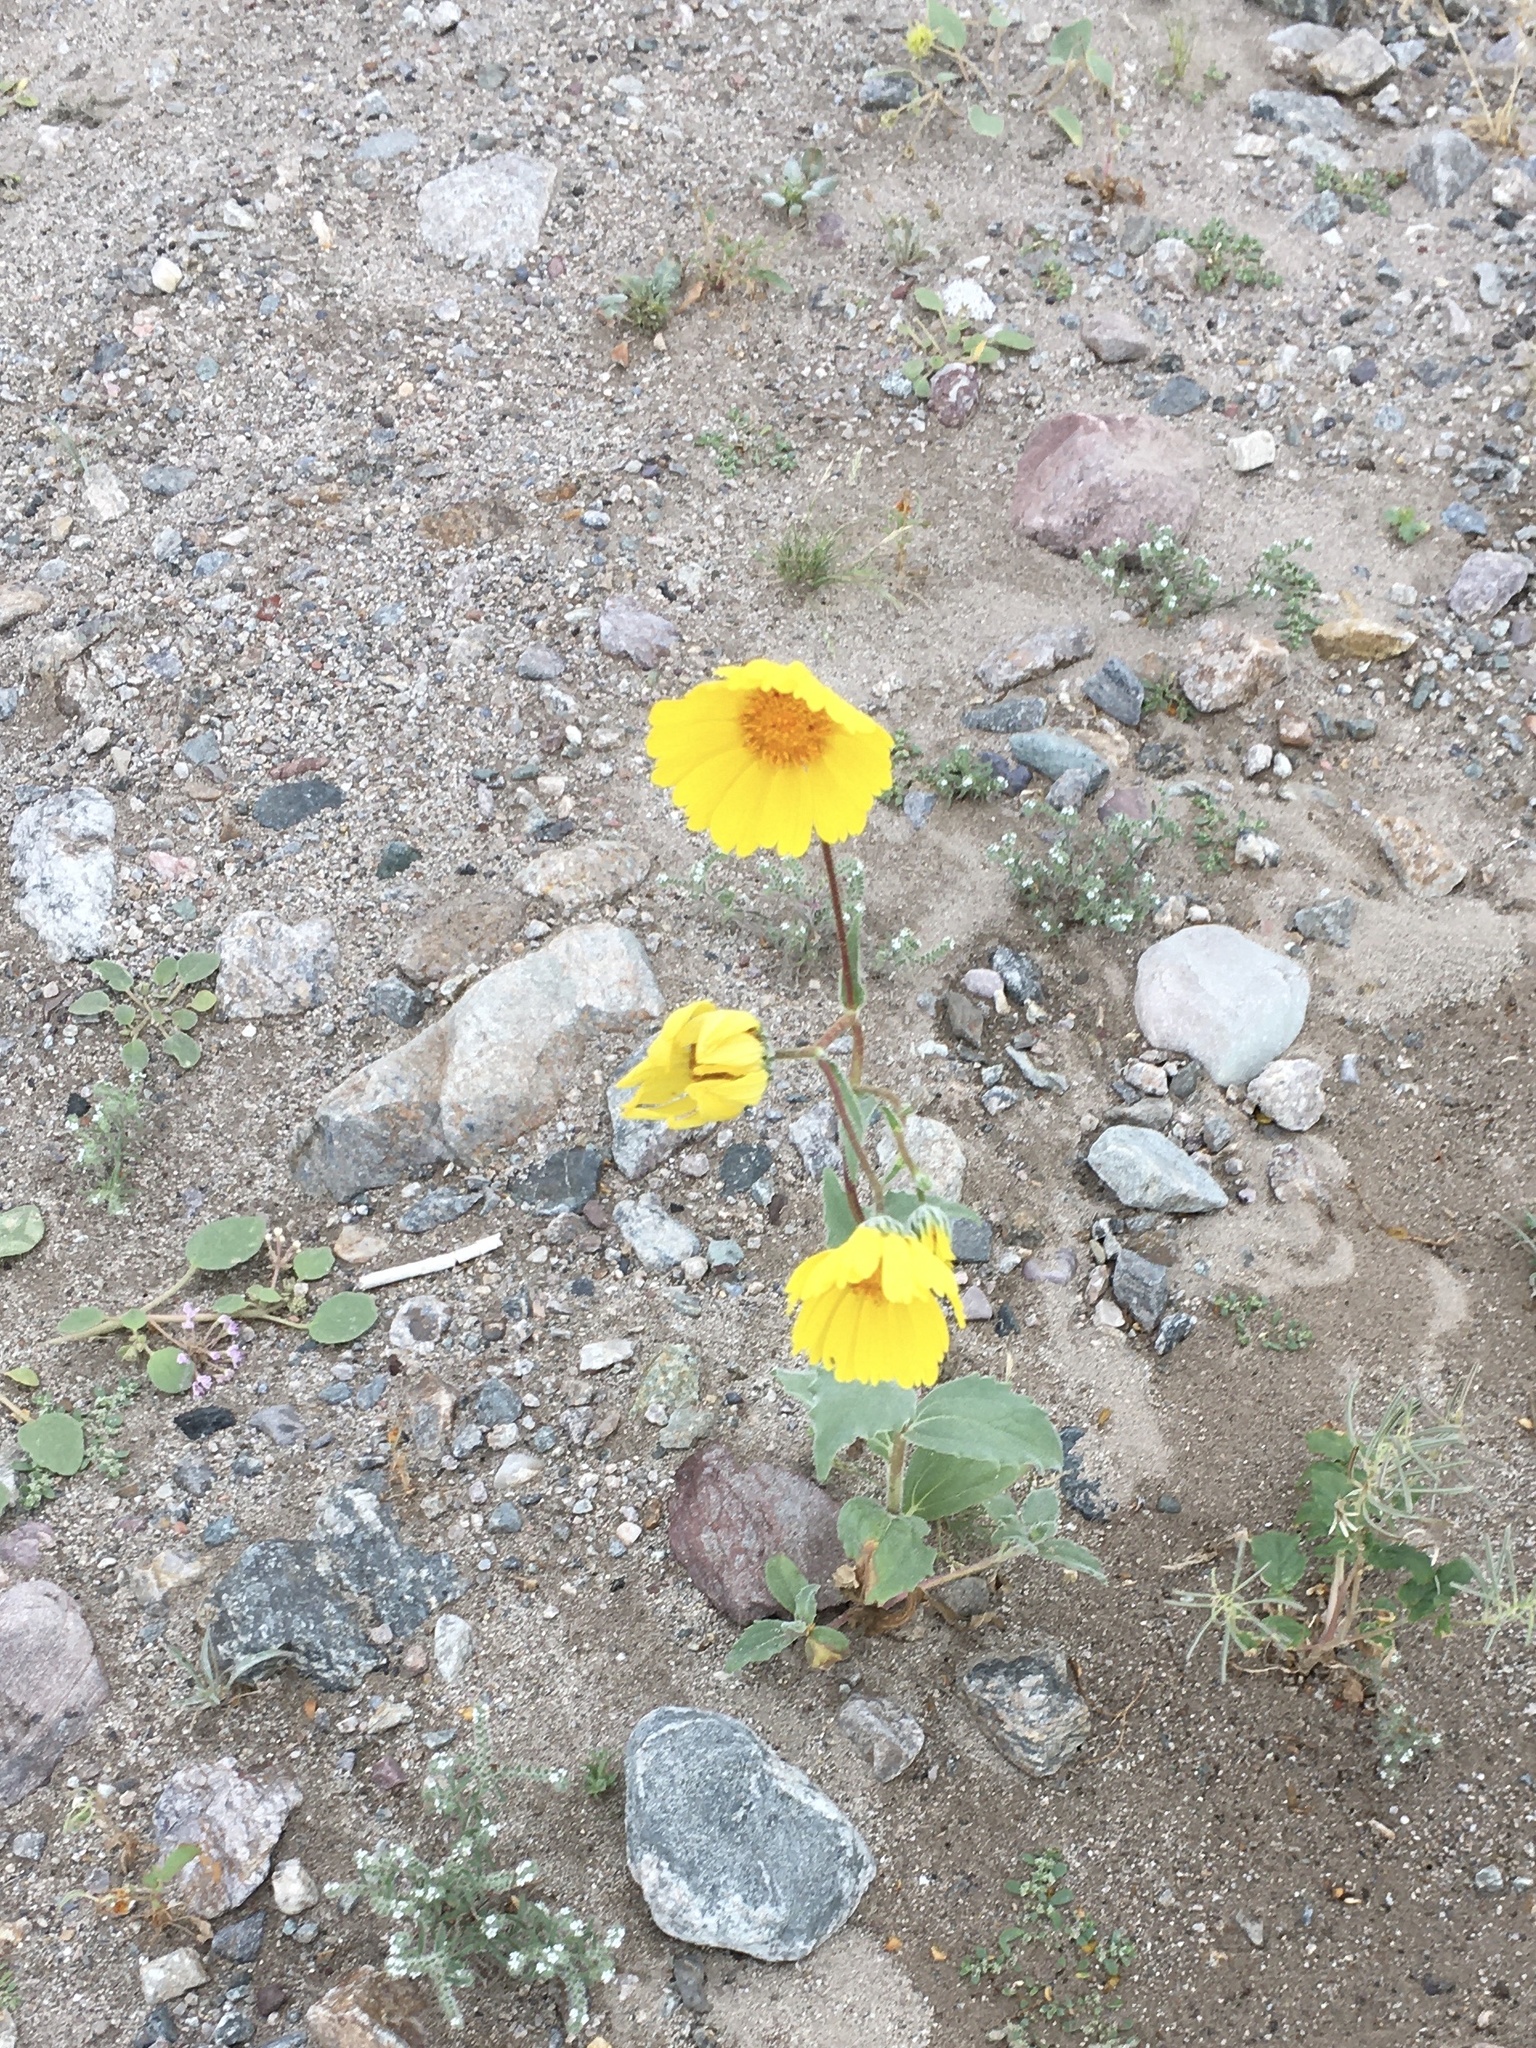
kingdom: Plantae
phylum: Tracheophyta
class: Magnoliopsida
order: Asterales
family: Asteraceae
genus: Geraea
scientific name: Geraea canescens
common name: Desert-gold
